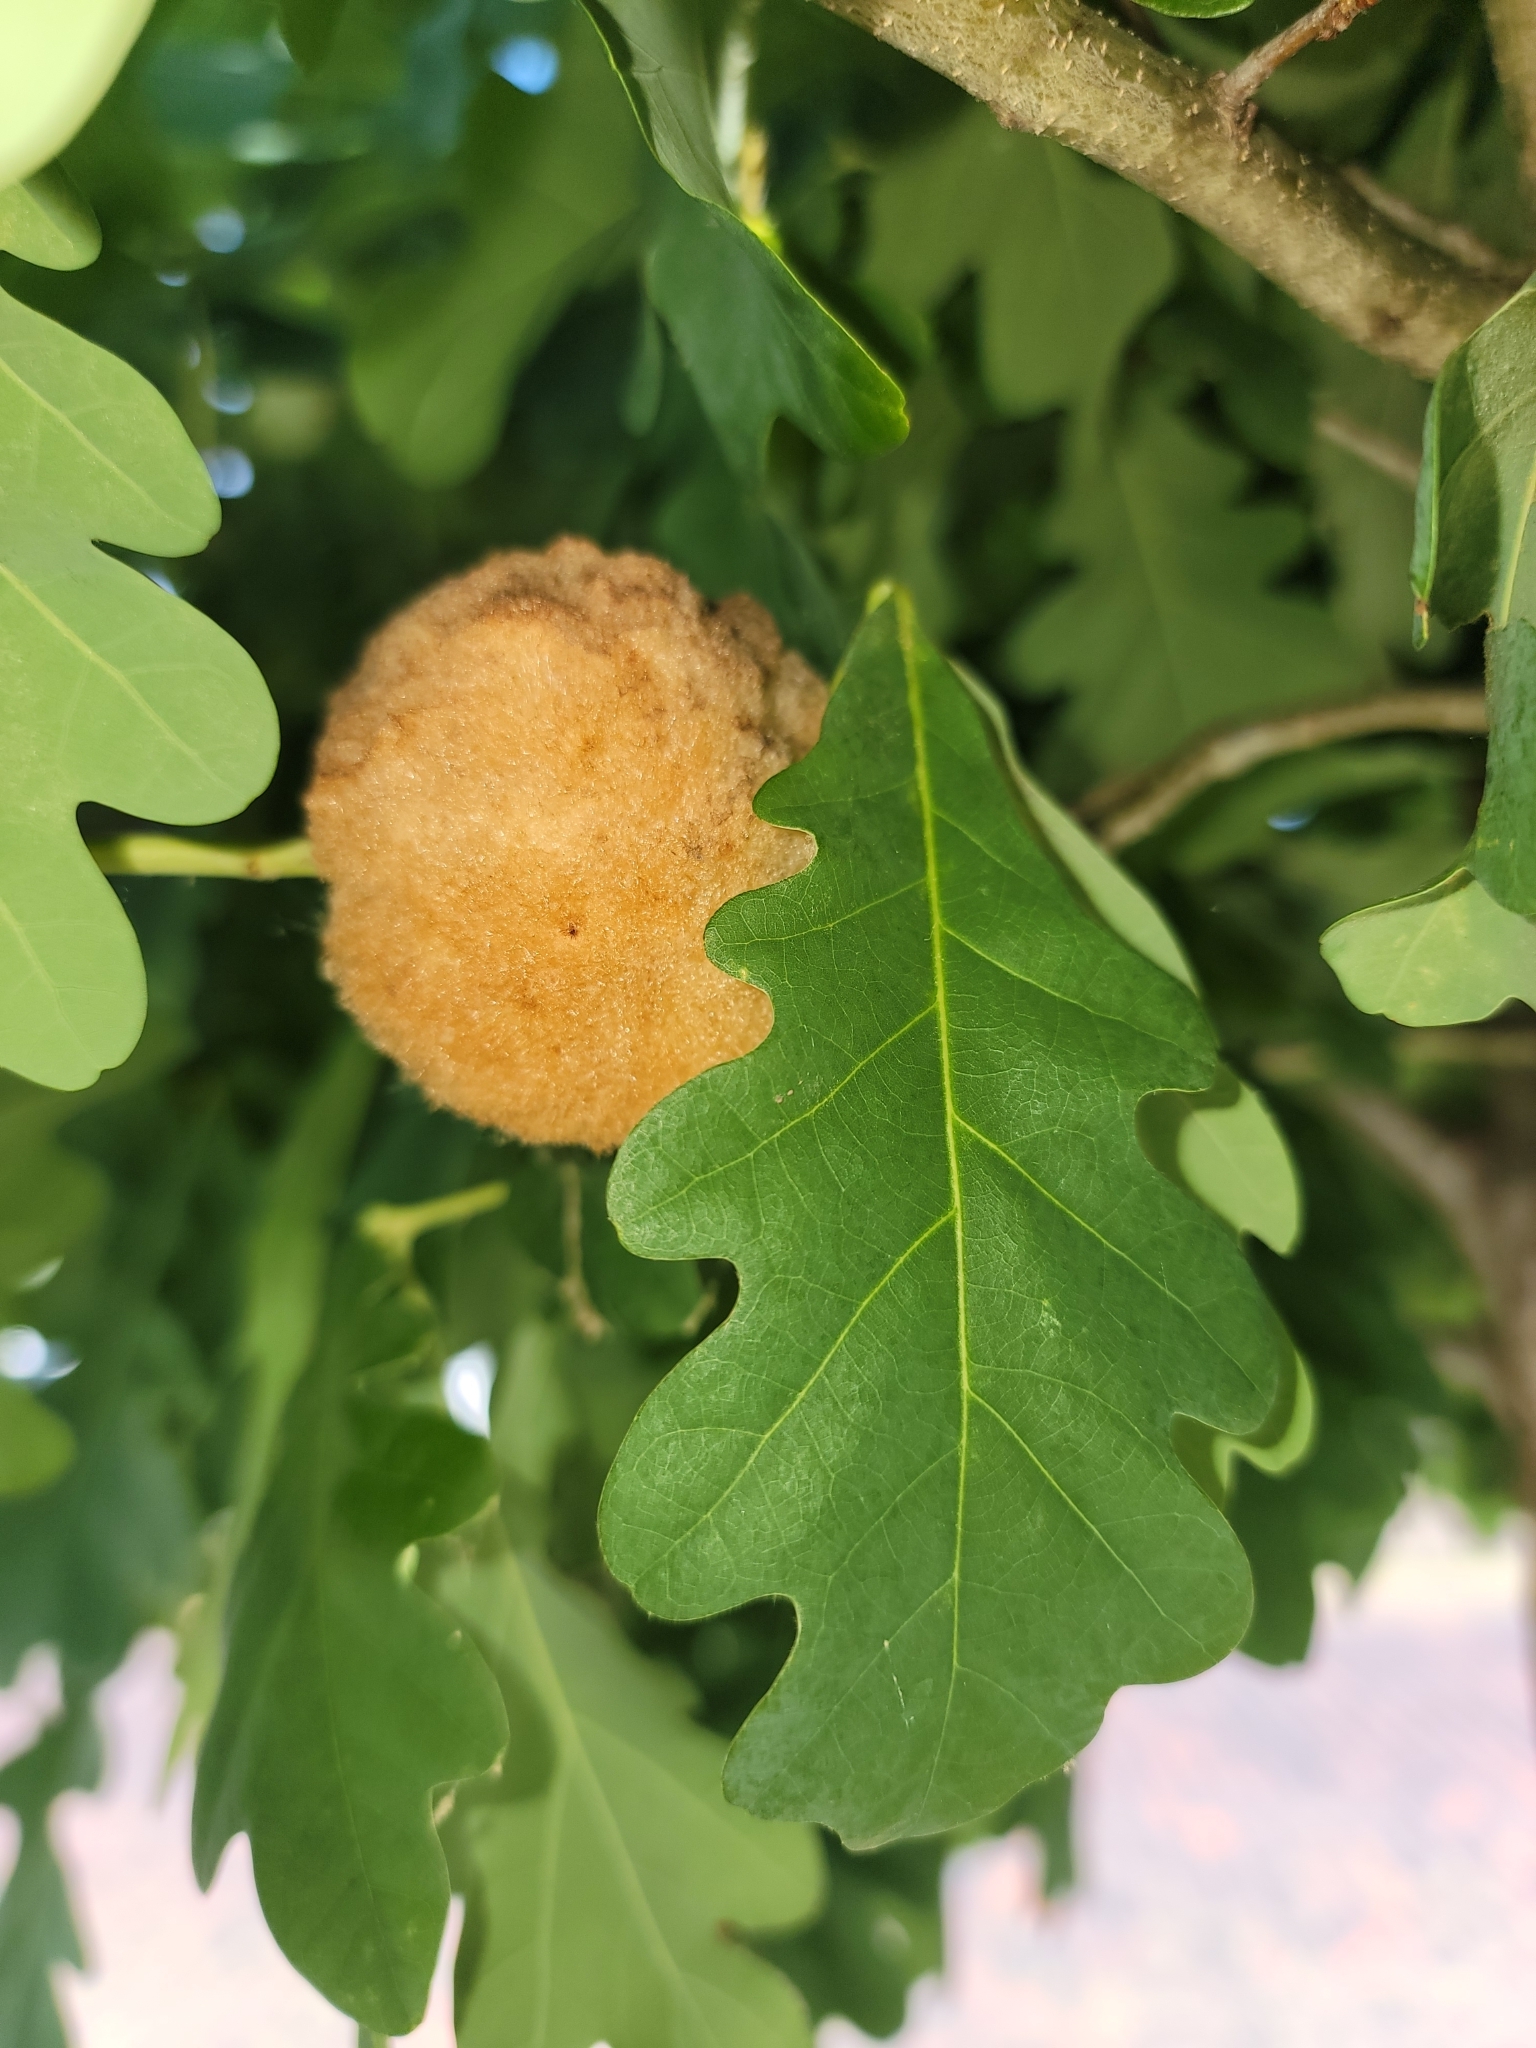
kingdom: Animalia
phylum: Arthropoda
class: Insecta
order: Hymenoptera
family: Cynipidae
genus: Callirhytis
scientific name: Callirhytis
